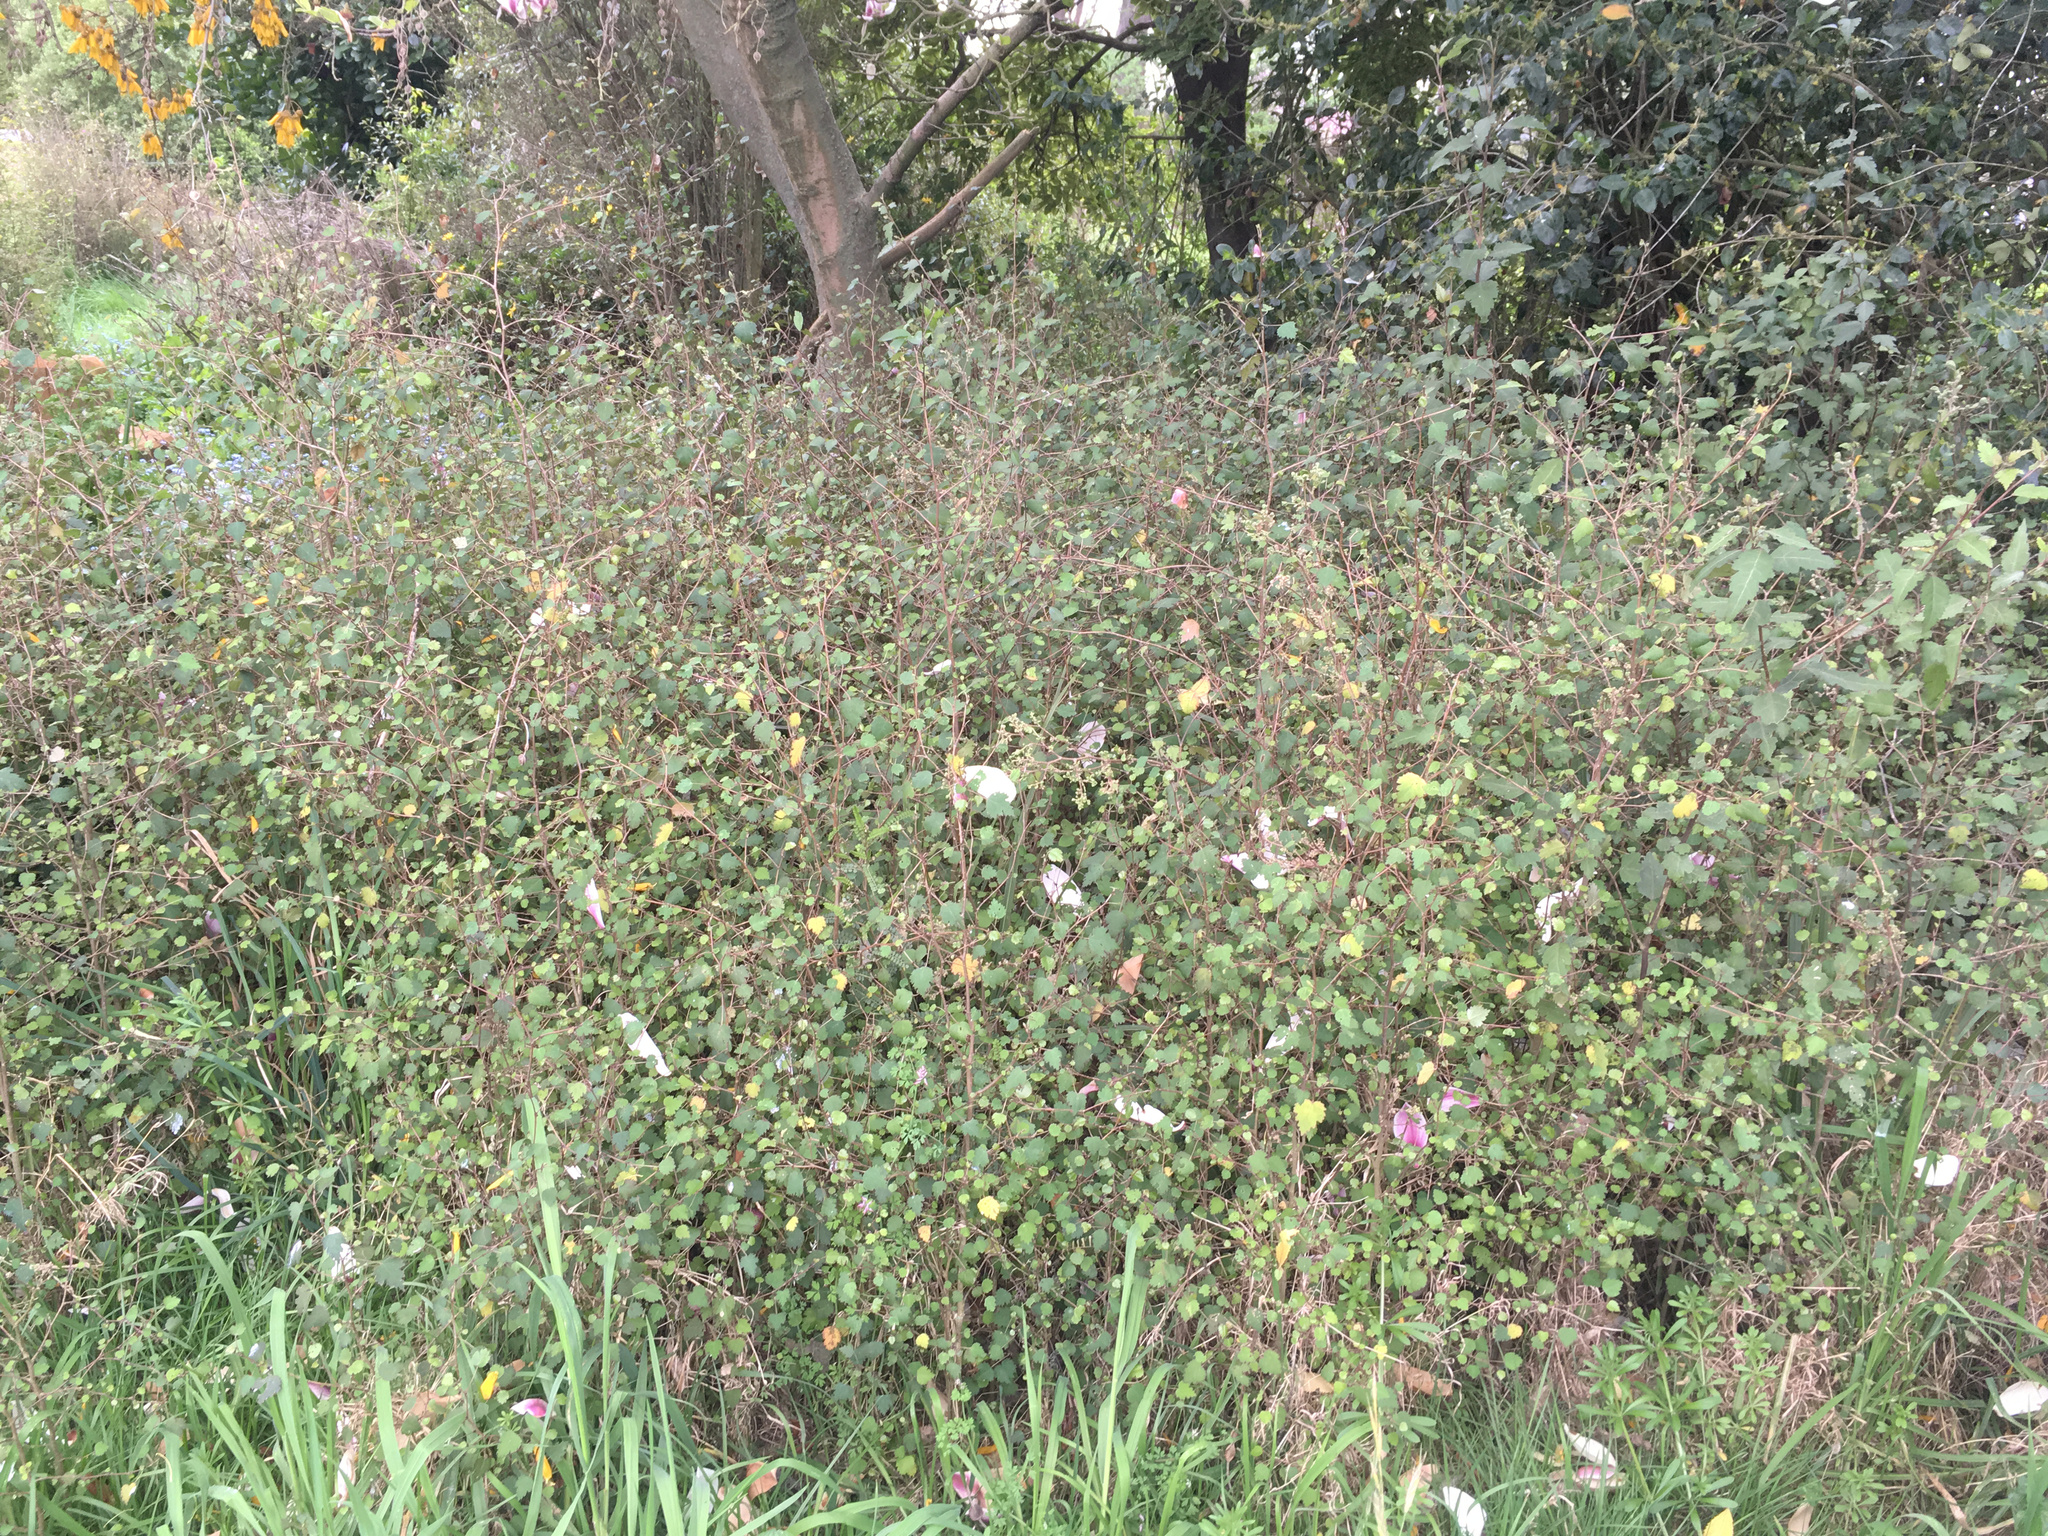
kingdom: Plantae
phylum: Tracheophyta
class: Magnoliopsida
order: Malvales
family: Malvaceae
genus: Plagianthus
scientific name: Plagianthus regius
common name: Manatu
